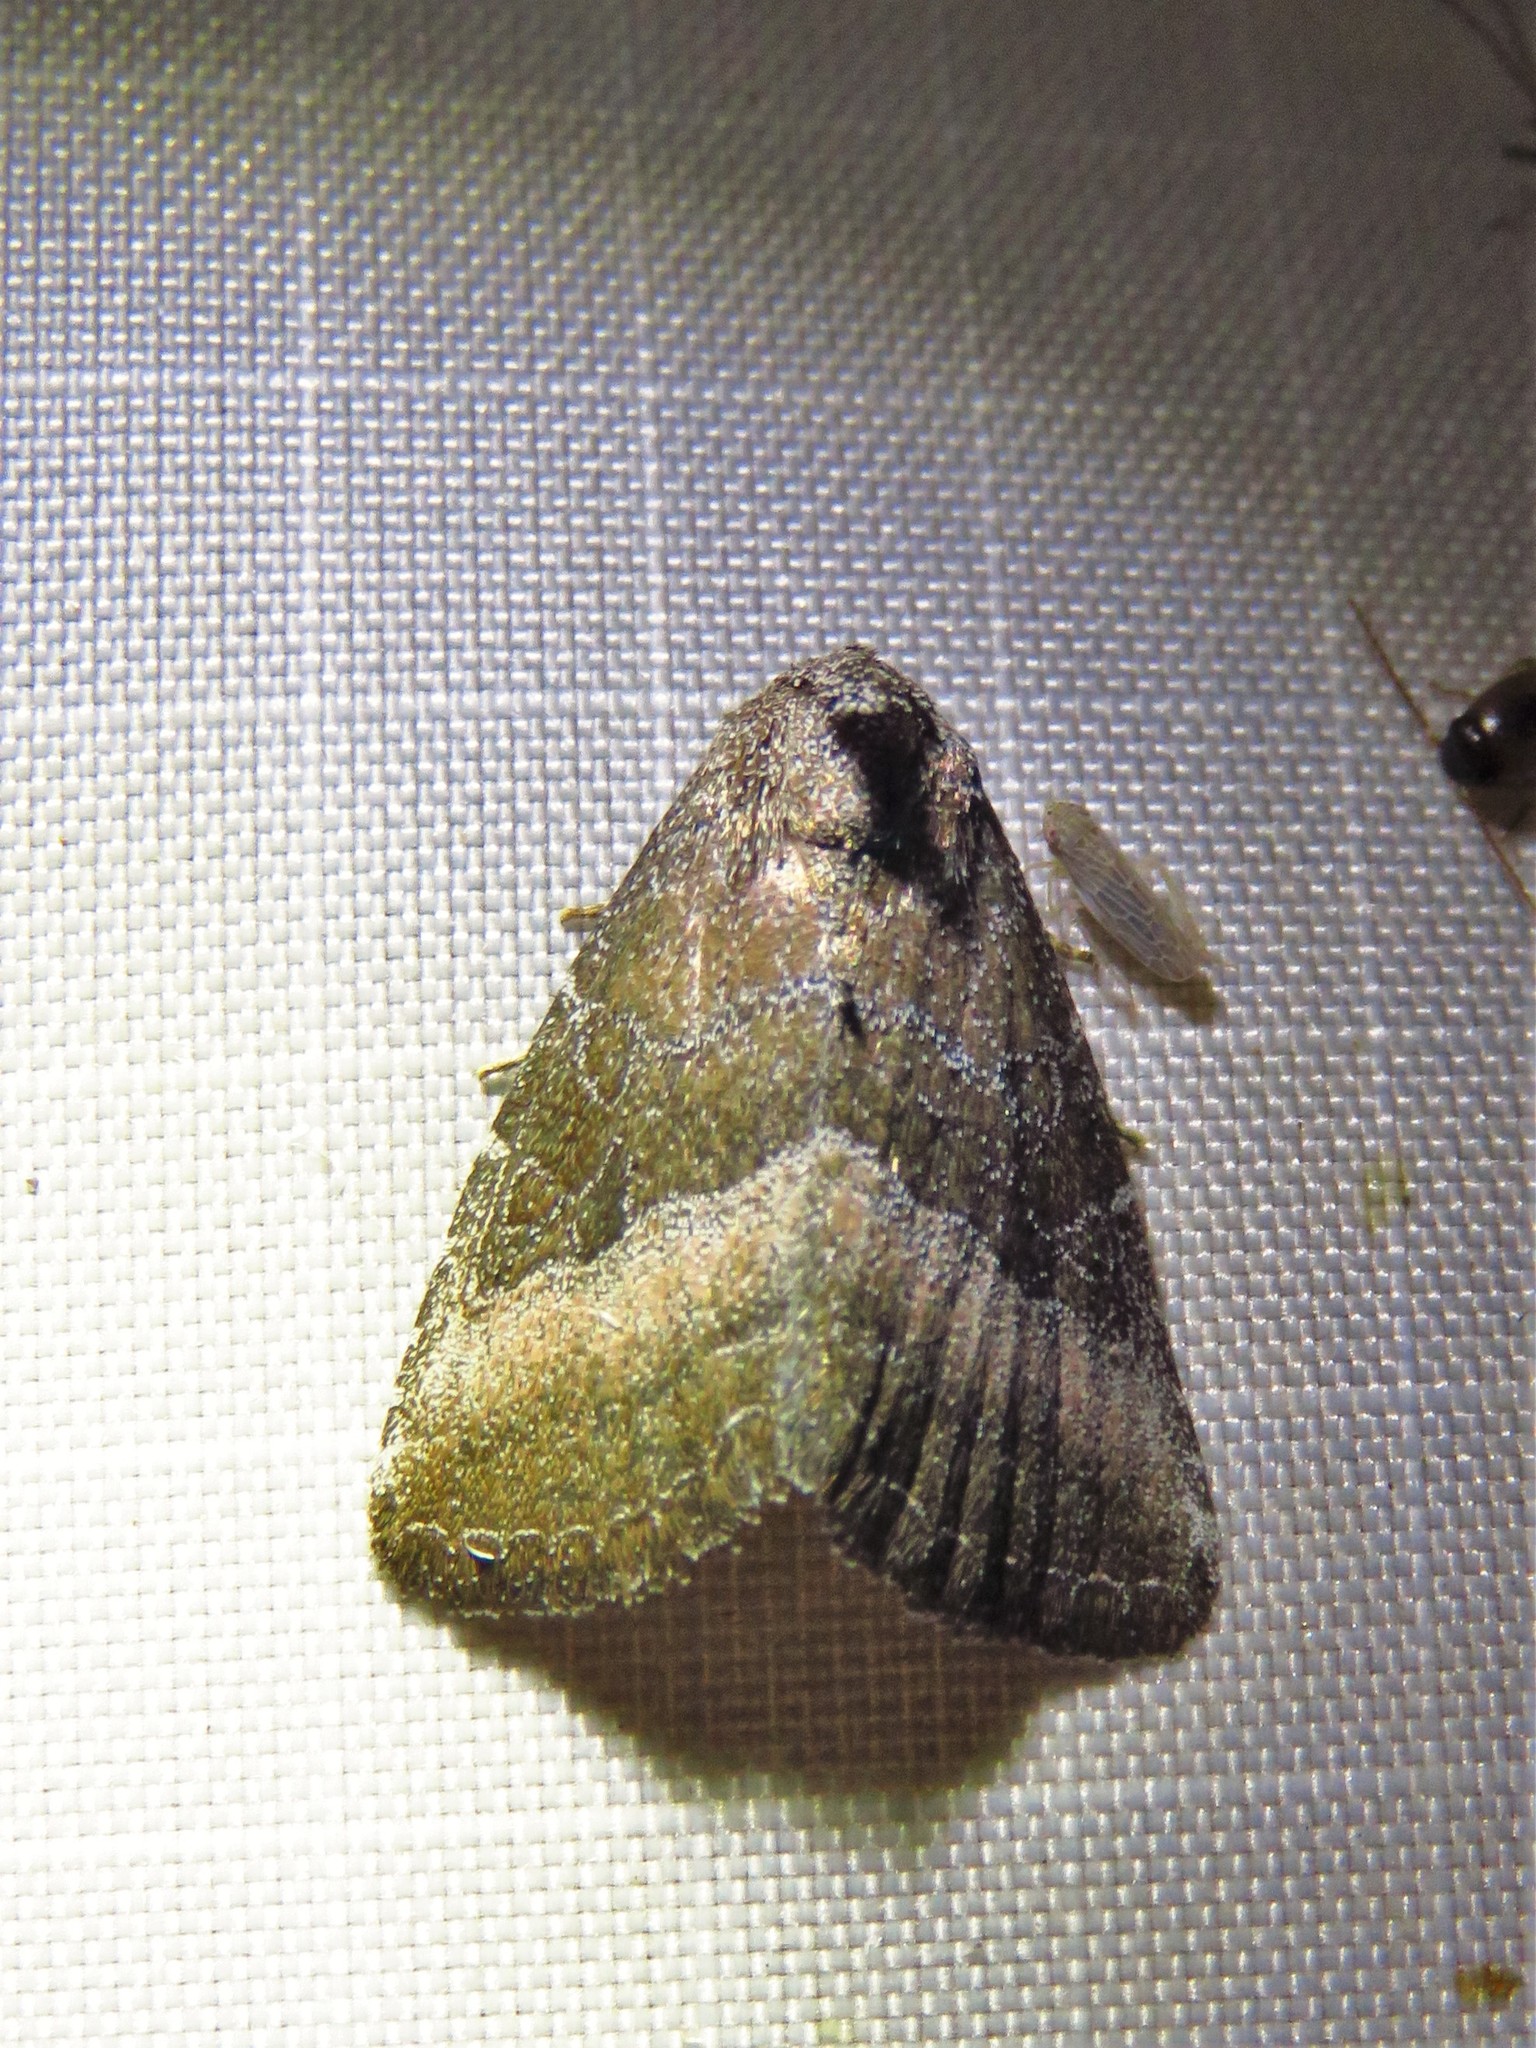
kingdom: Animalia
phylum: Arthropoda
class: Insecta
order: Lepidoptera
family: Noctuidae
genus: Ogdoconta
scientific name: Ogdoconta cinereola
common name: Common pinkband
